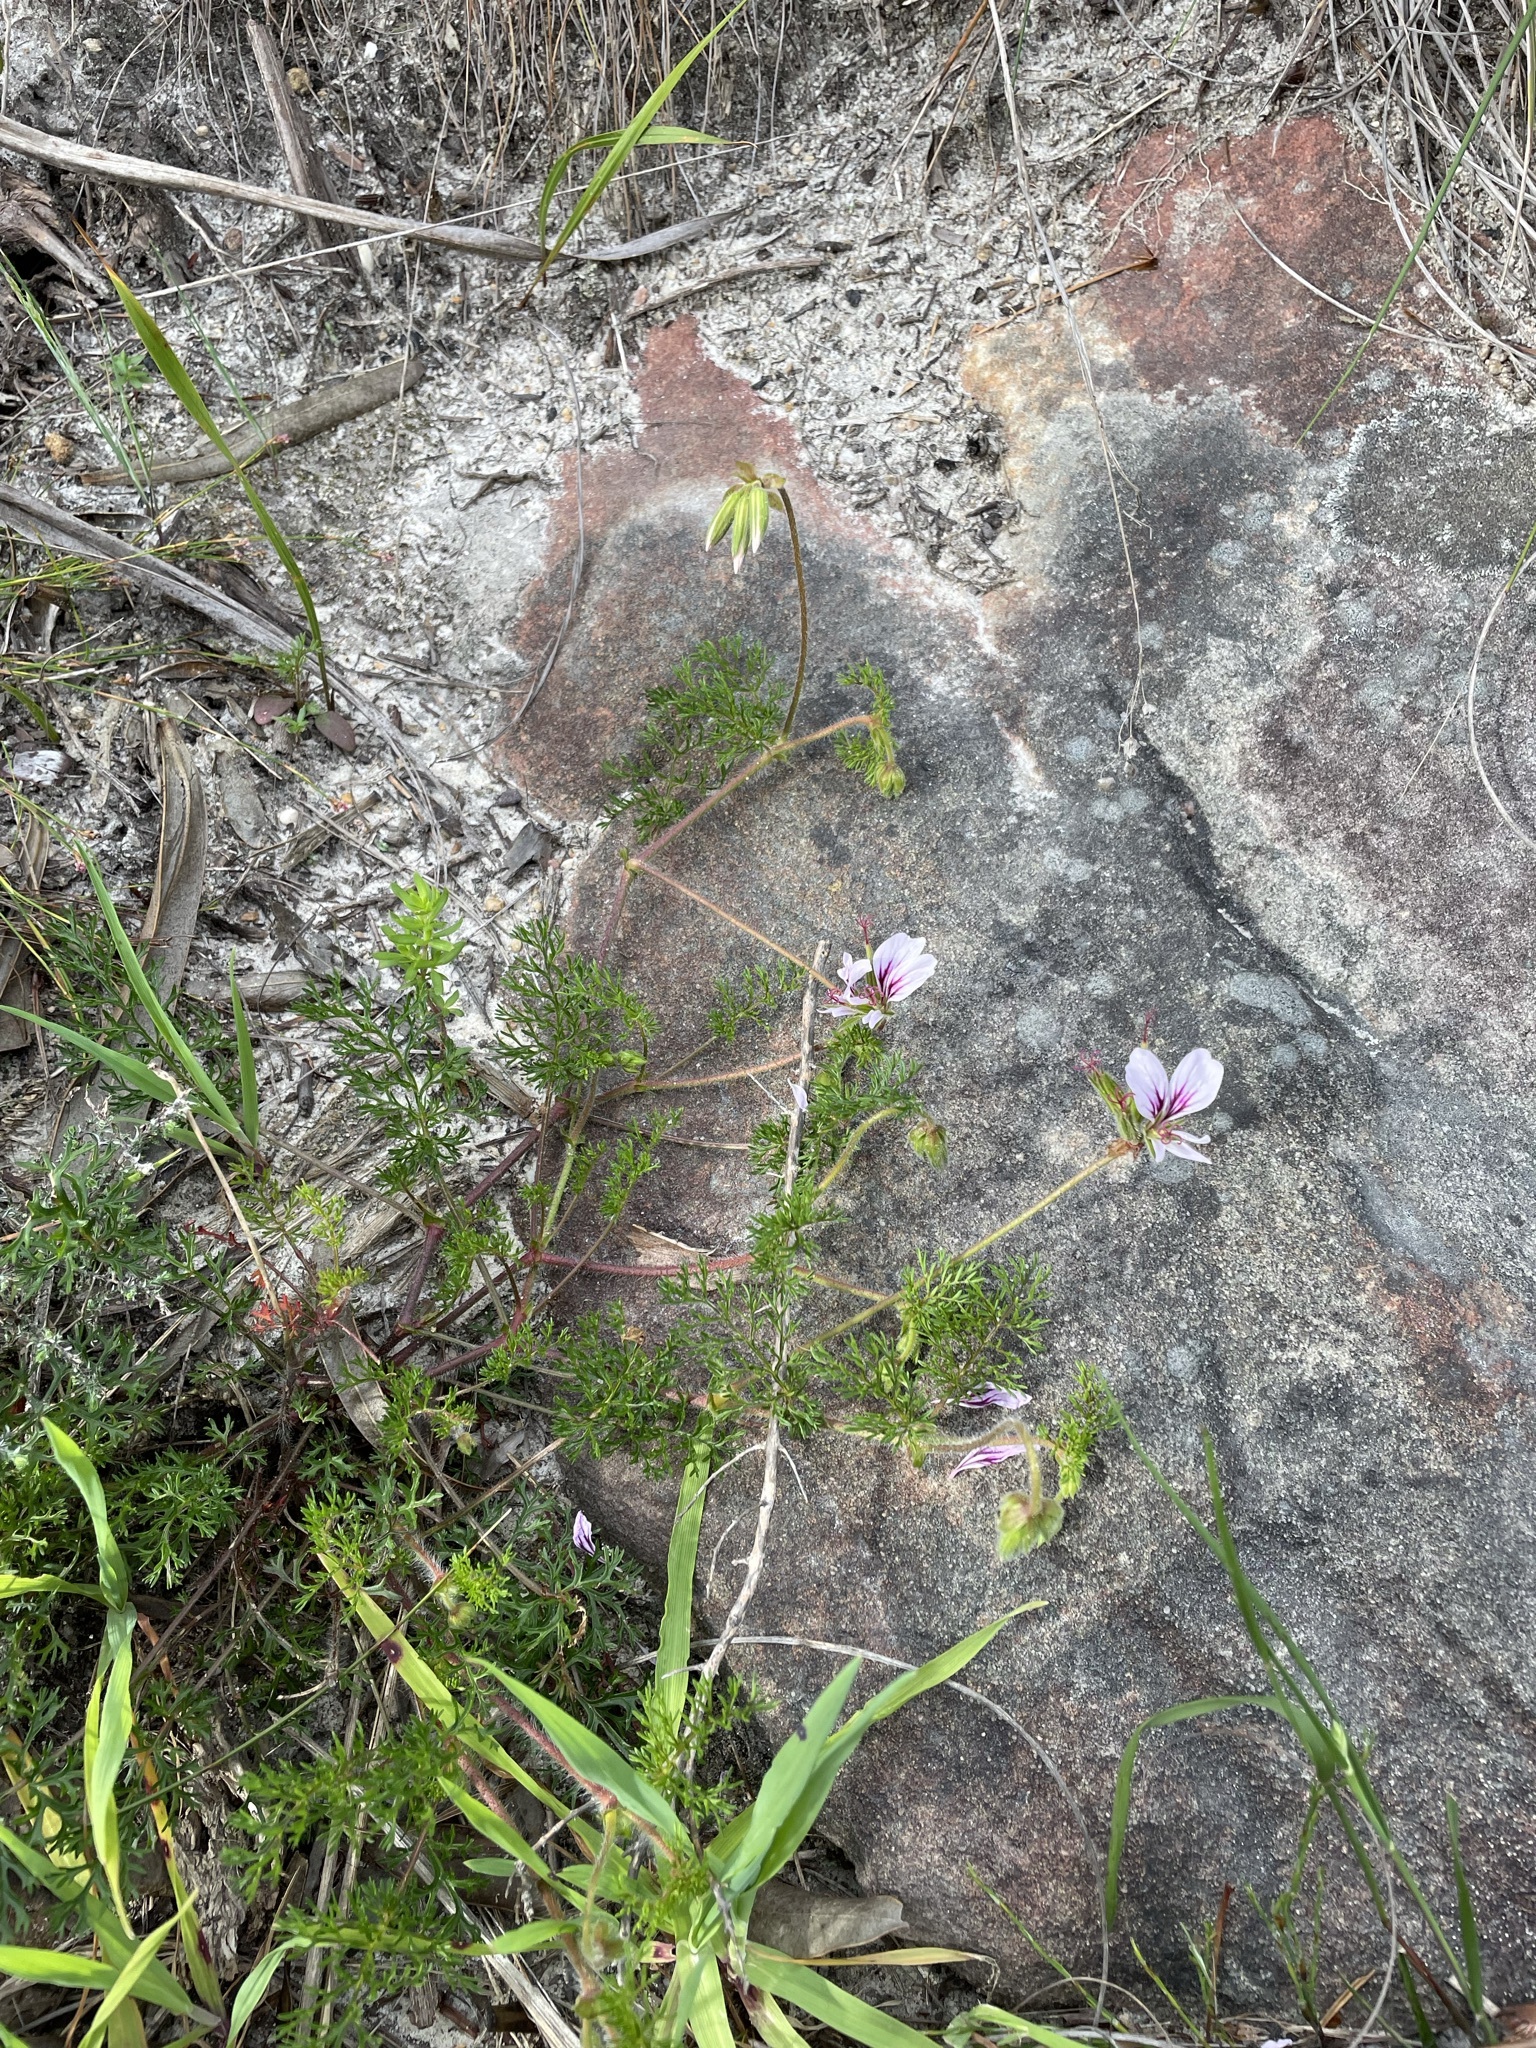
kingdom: Plantae
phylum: Tracheophyta
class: Magnoliopsida
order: Geraniales
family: Geraniaceae
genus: Pelargonium
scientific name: Pelargonium myrrhifolium
